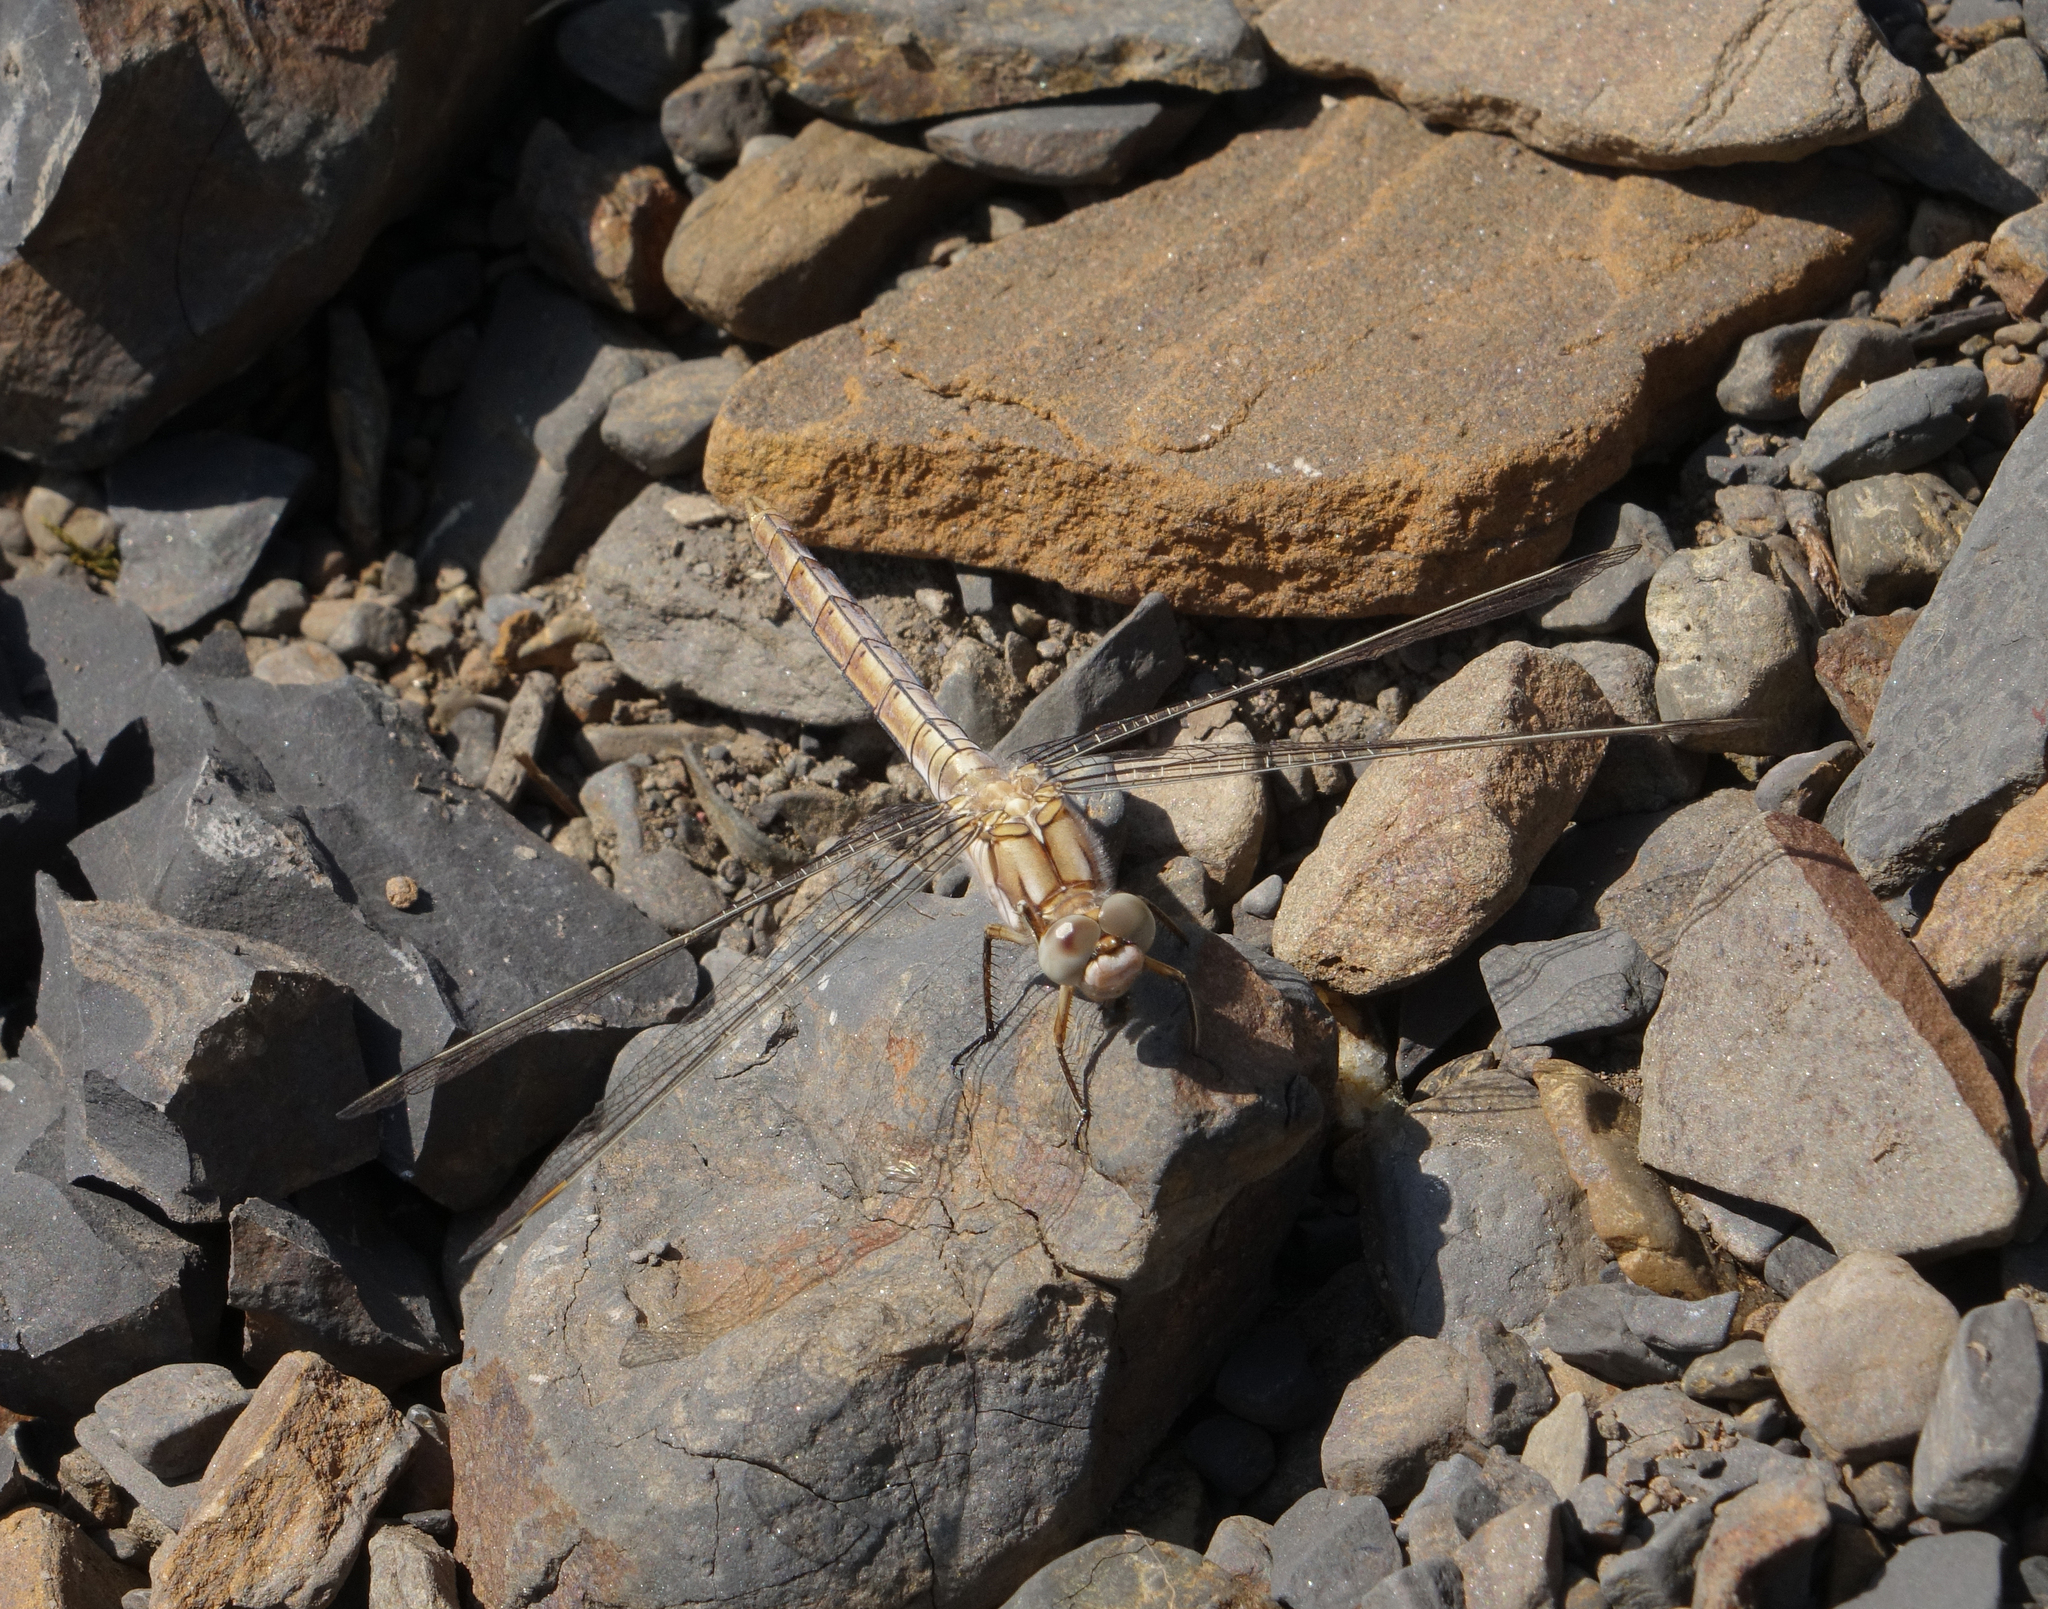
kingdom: Animalia
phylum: Arthropoda
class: Insecta
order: Odonata
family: Libellulidae
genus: Orthetrum
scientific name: Orthetrum brunneum
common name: Southern skimmer
